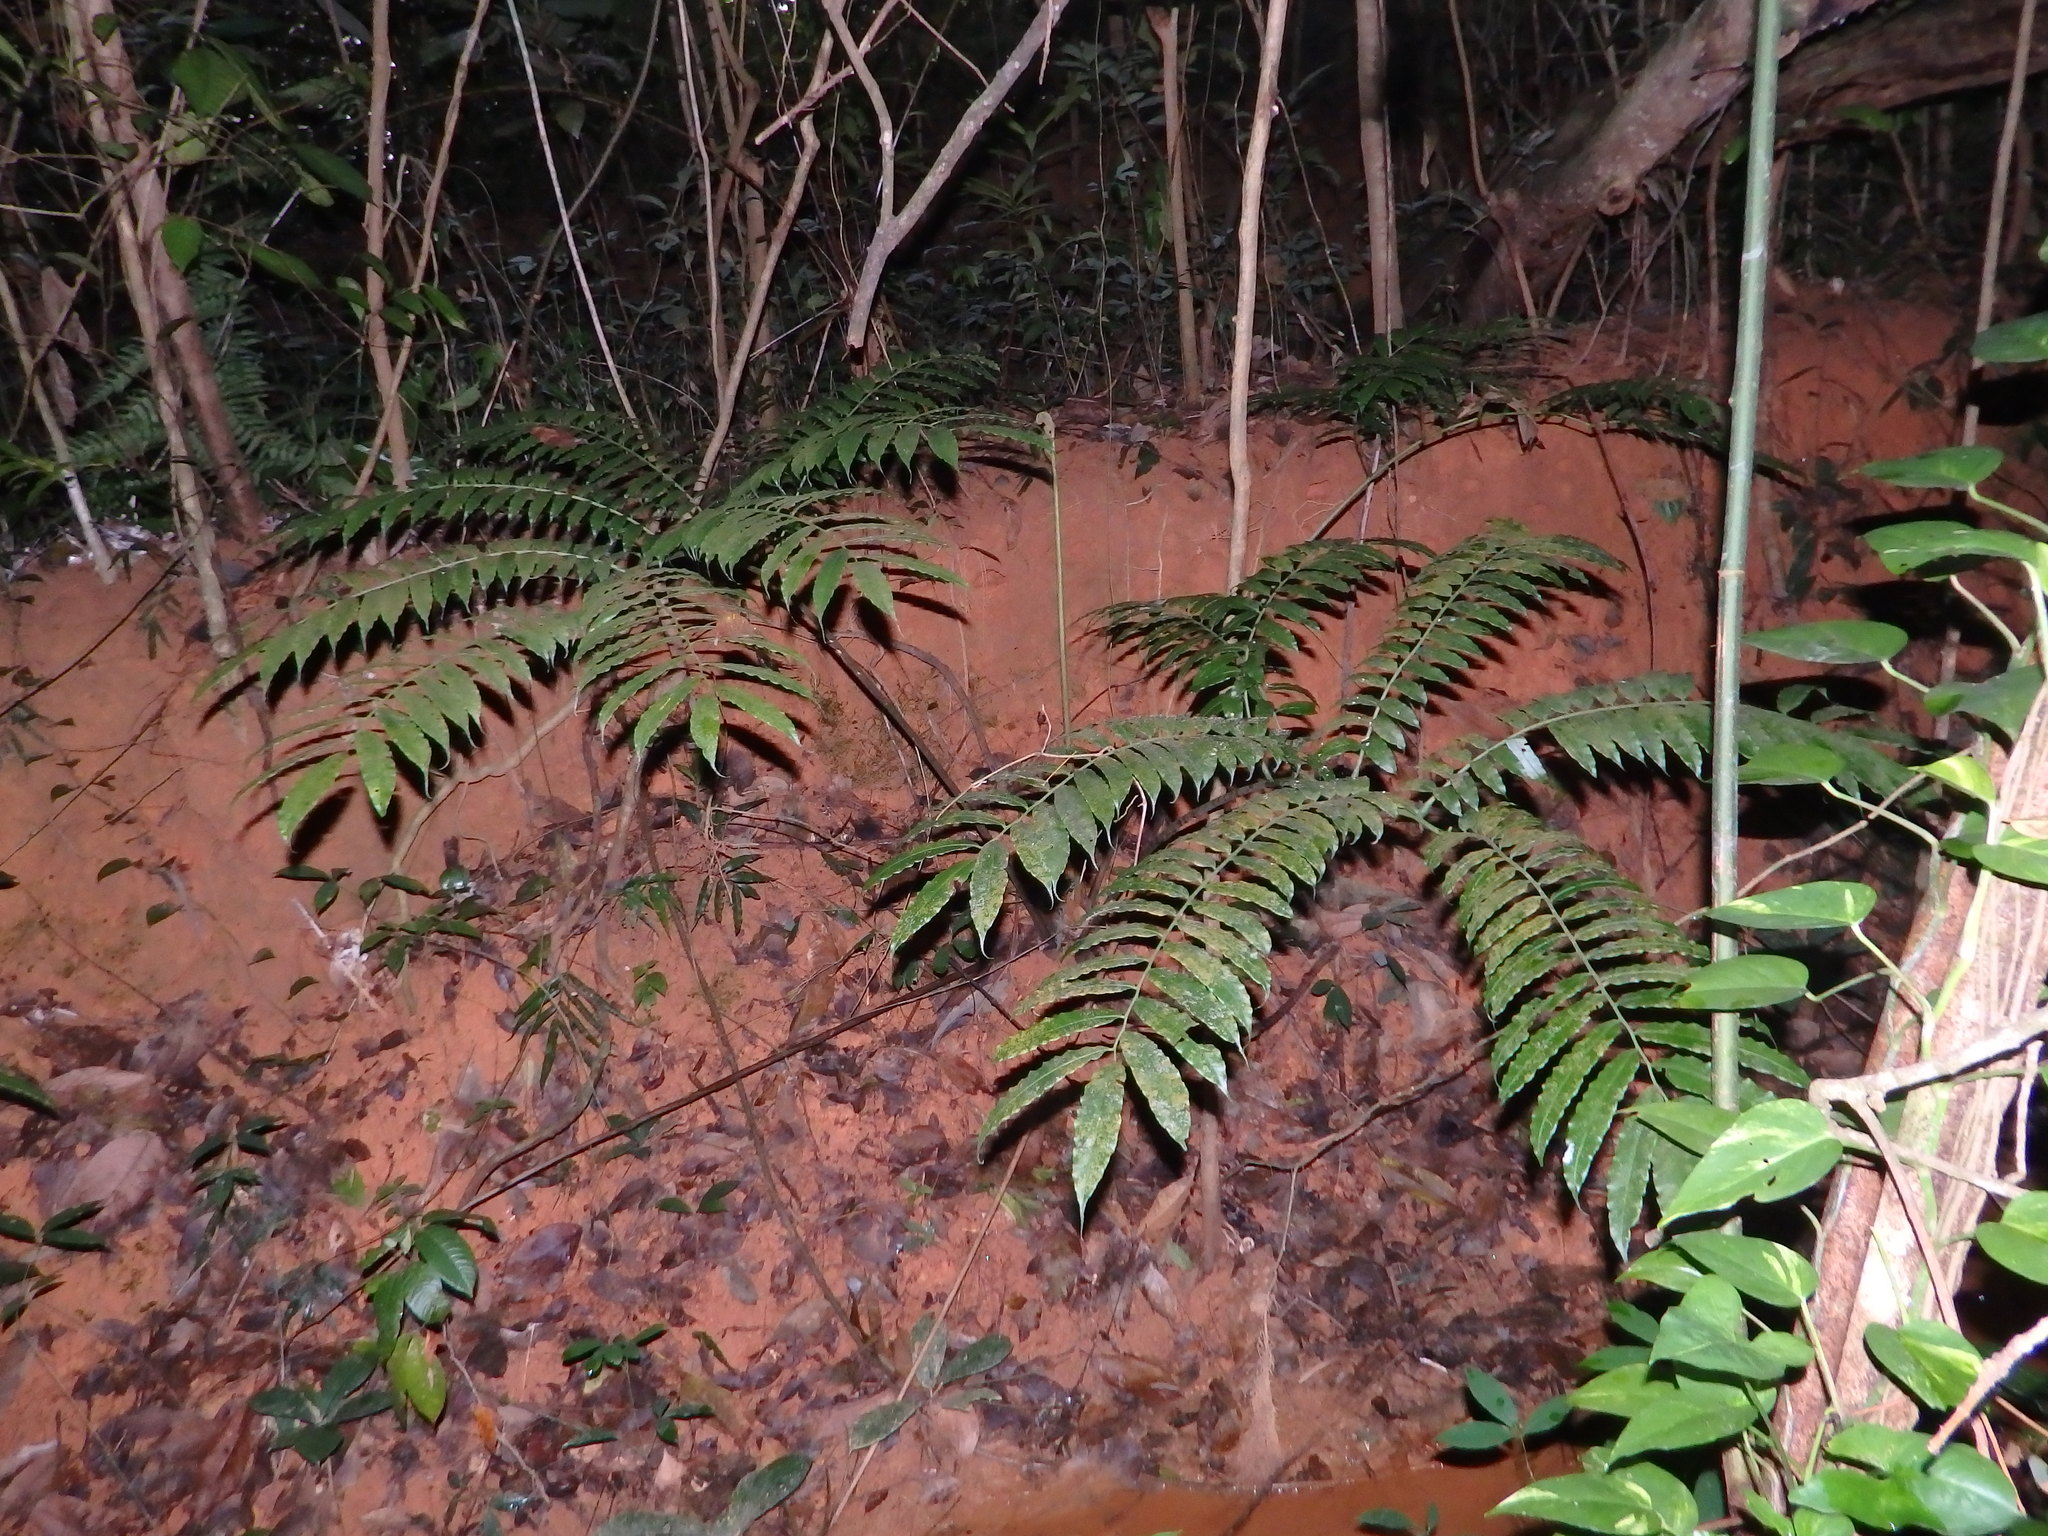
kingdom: Plantae
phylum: Tracheophyta
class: Polypodiopsida
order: Marattiales
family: Marattiaceae
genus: Angiopteris
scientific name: Angiopteris evecta
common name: Mule's-foot fern
